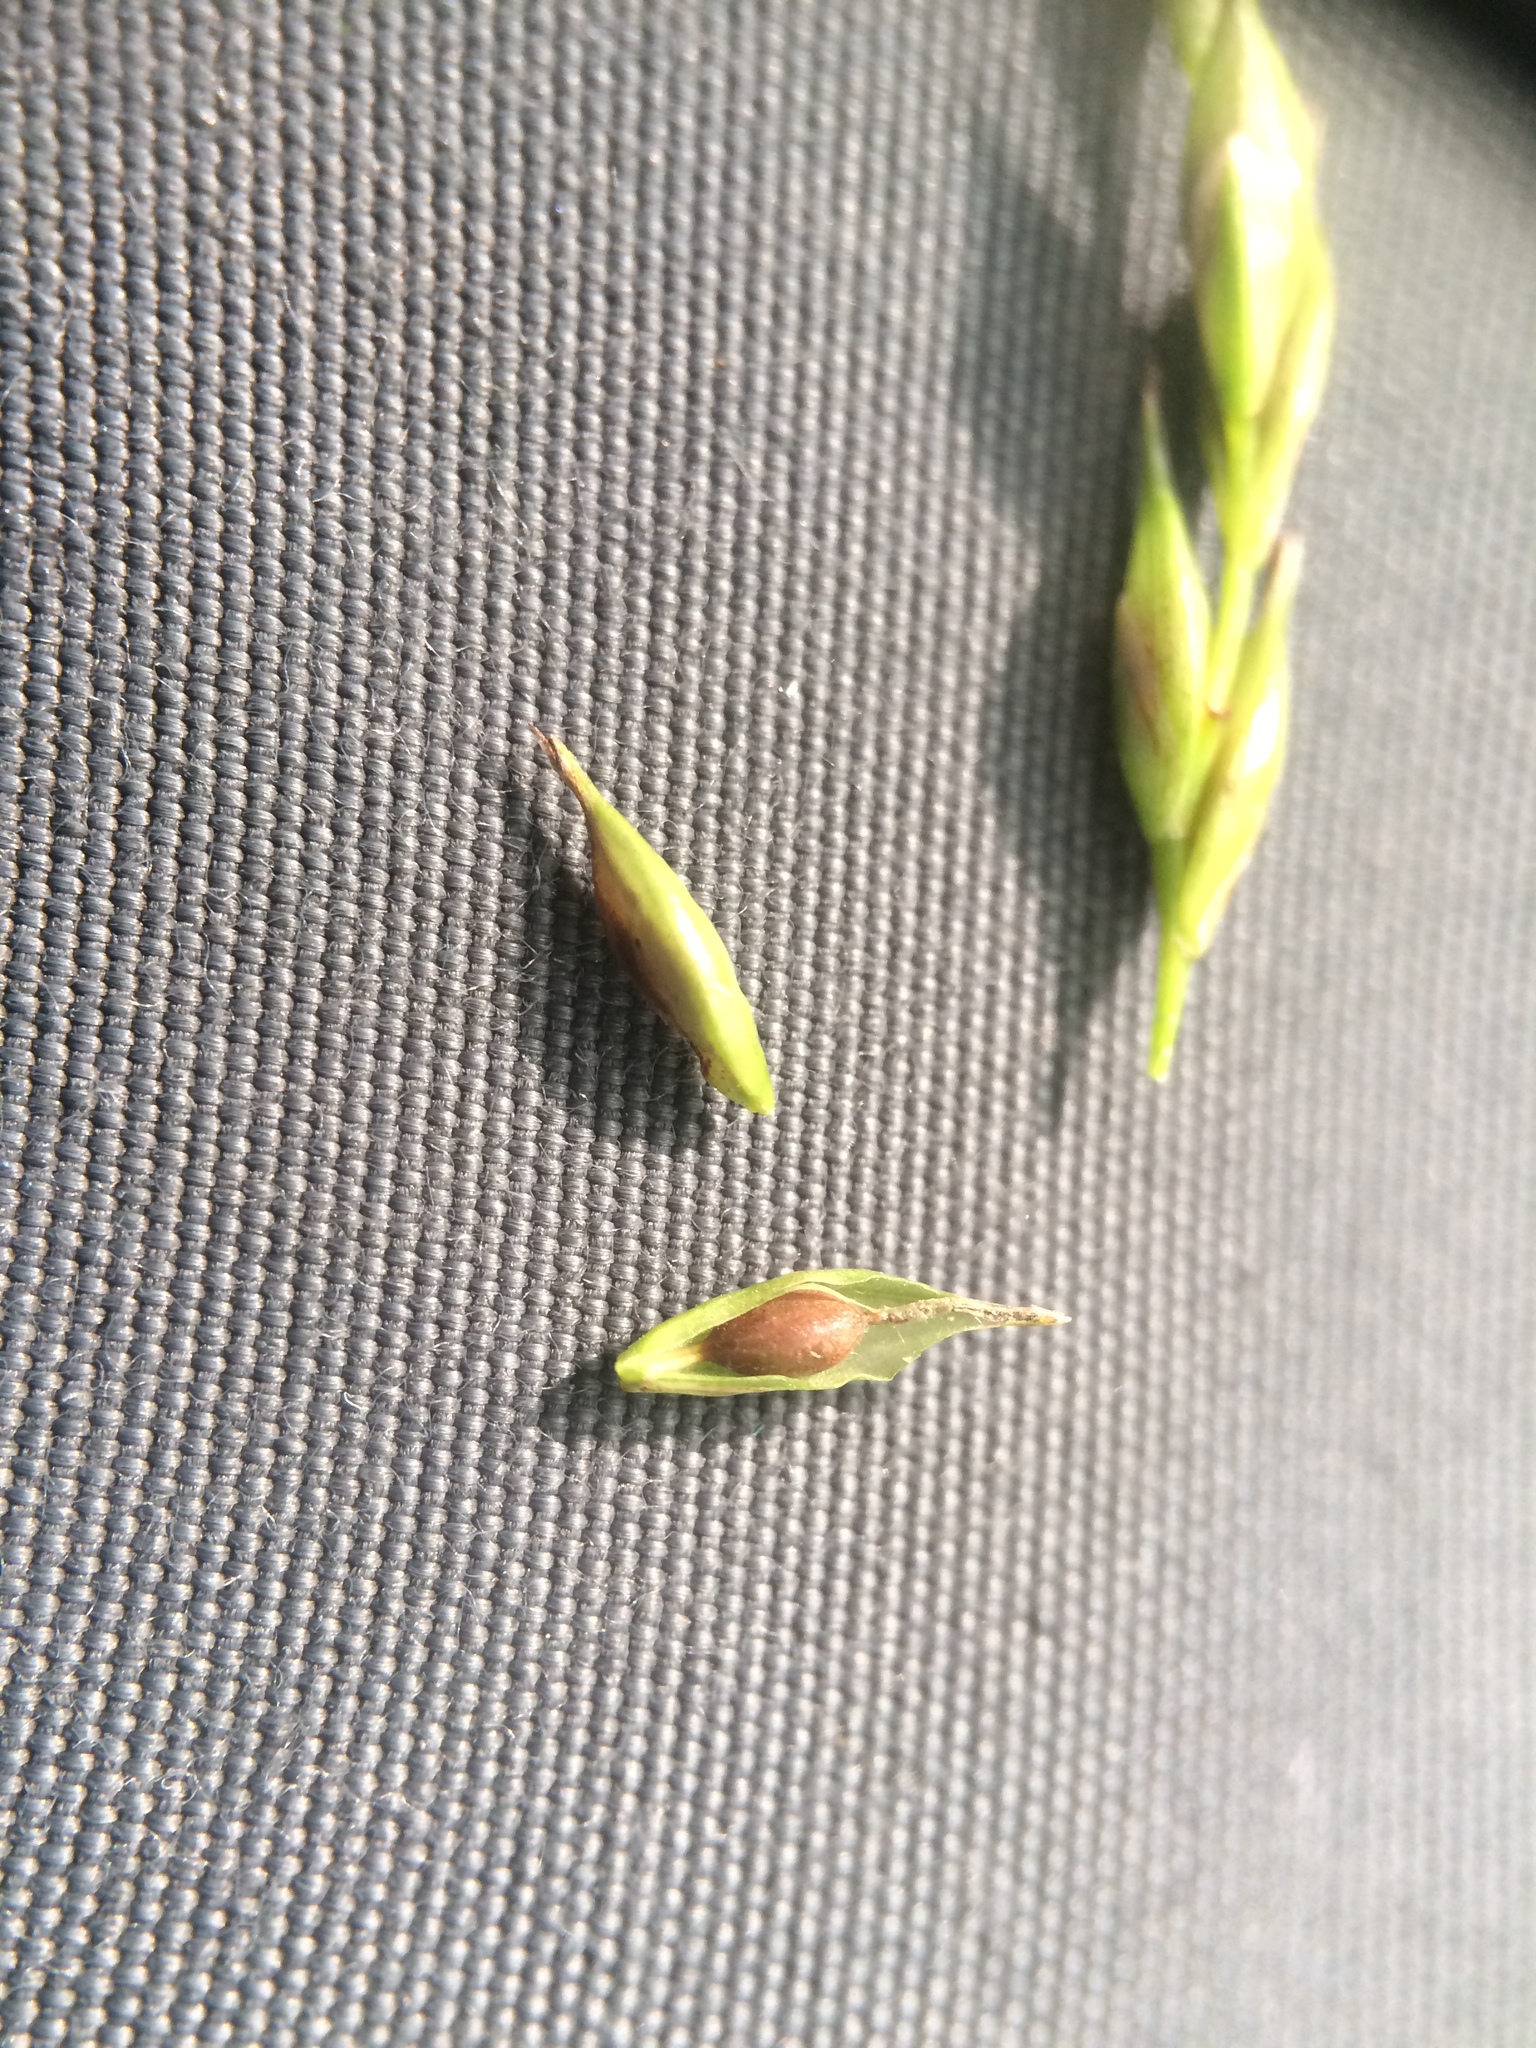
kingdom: Plantae
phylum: Tracheophyta
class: Liliopsida
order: Poales
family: Cyperaceae
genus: Carex
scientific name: Carex debilis
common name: White-edge sedge
